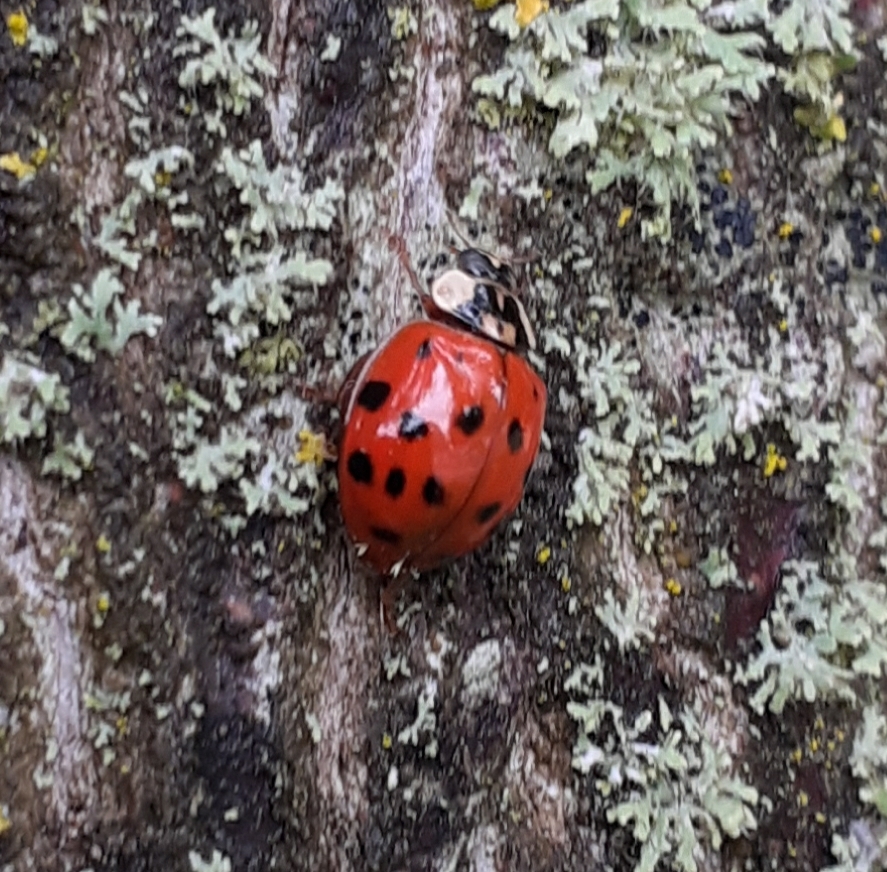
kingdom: Animalia
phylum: Arthropoda
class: Insecta
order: Coleoptera
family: Coccinellidae
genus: Harmonia
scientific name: Harmonia axyridis
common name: Harlequin ladybird
